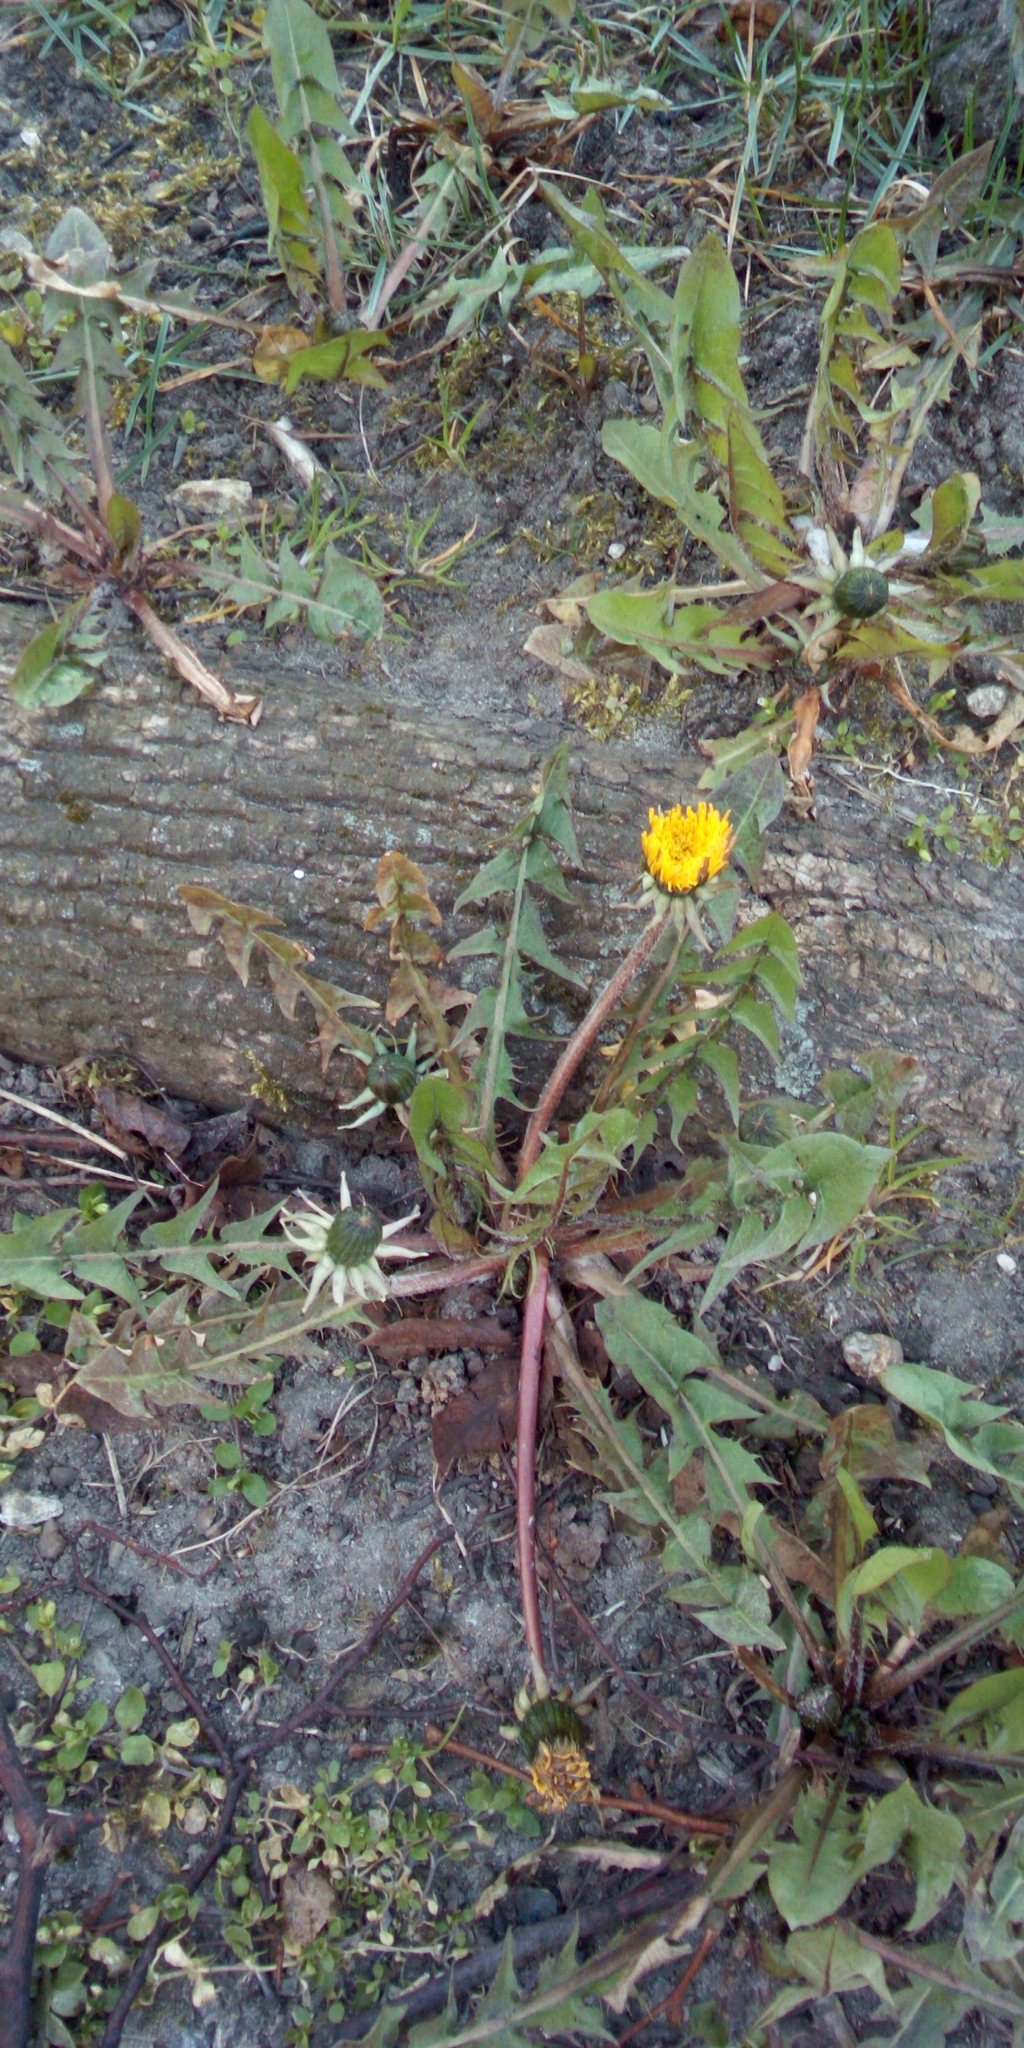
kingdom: Plantae
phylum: Tracheophyta
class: Magnoliopsida
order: Asterales
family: Asteraceae
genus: Taraxacum
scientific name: Taraxacum officinale
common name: Common dandelion
